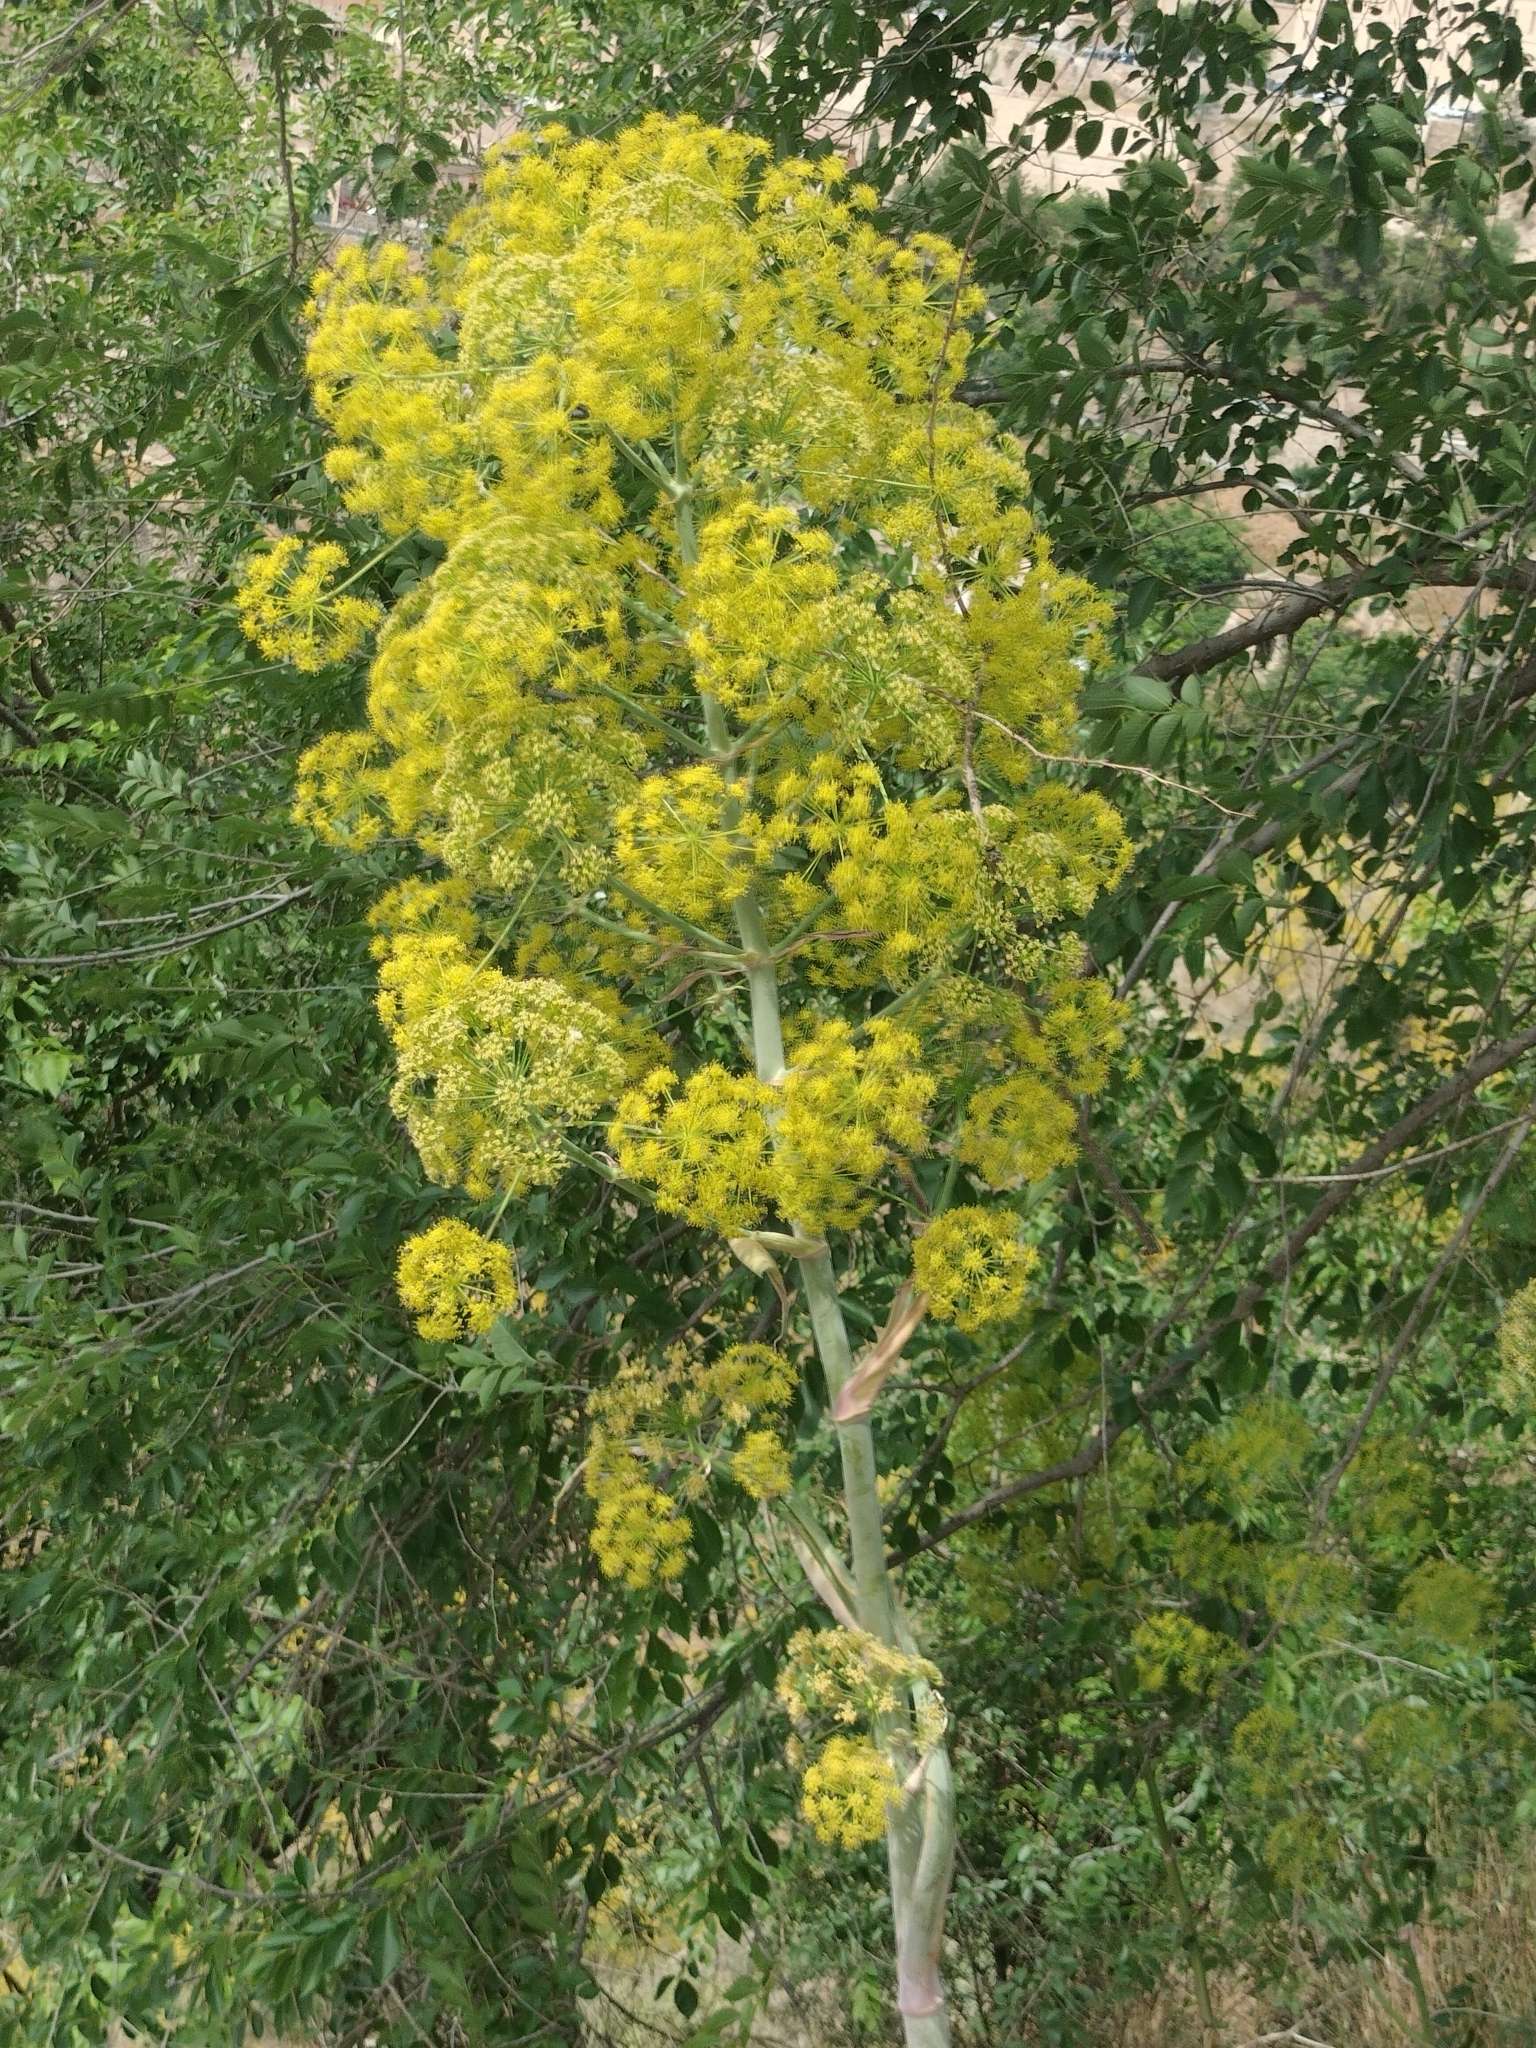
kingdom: Plantae
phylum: Tracheophyta
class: Magnoliopsida
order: Apiales
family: Apiaceae
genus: Ferula
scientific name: Ferula communis
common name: Giant fennel
